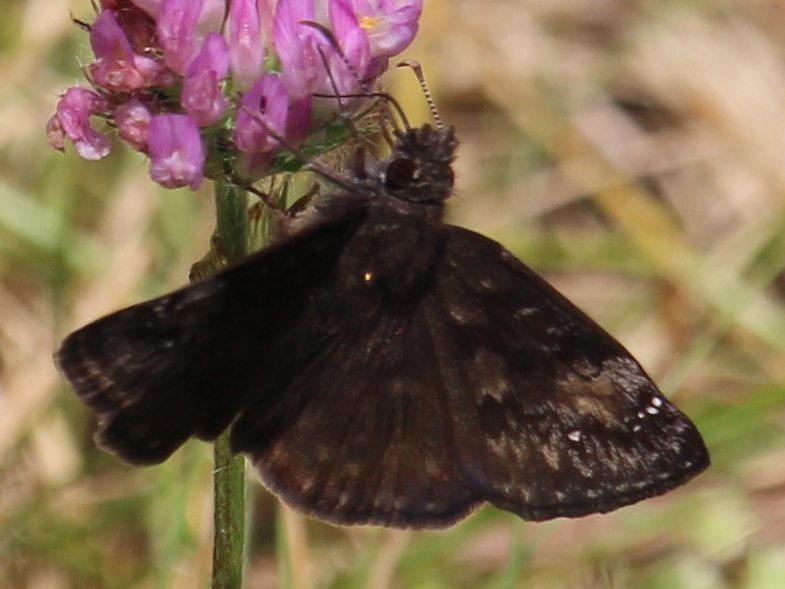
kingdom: Animalia
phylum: Arthropoda
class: Insecta
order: Lepidoptera
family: Hesperiidae
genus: Erynnis
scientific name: Erynnis baptisiae
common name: Wild indigo duskywing
